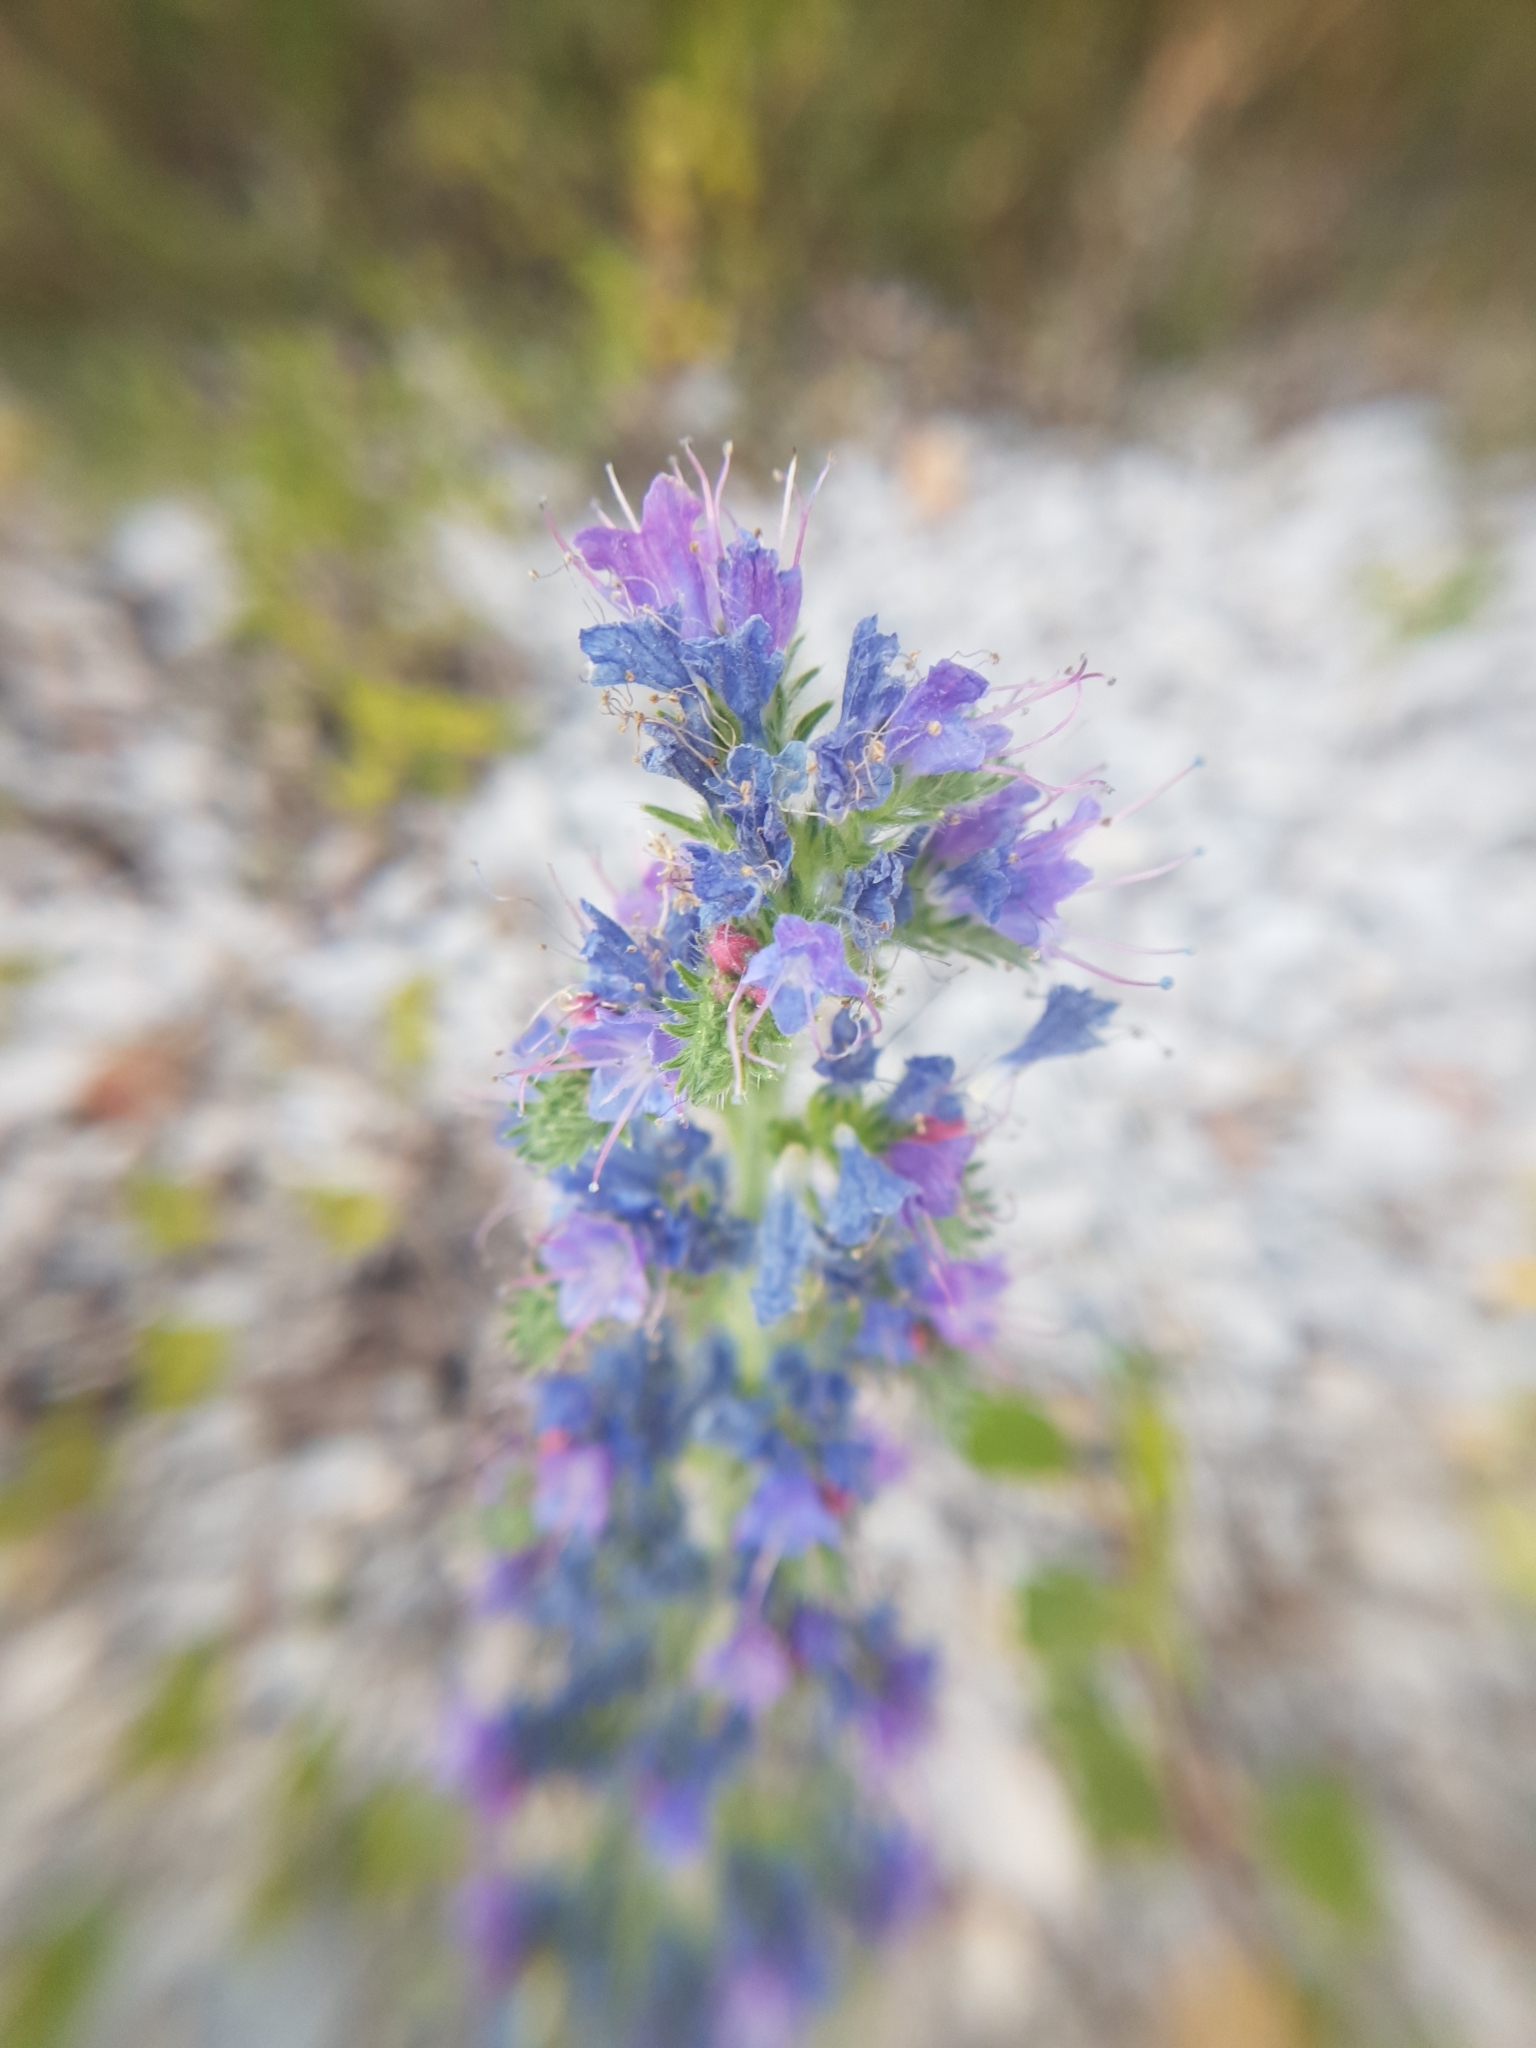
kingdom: Plantae
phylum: Tracheophyta
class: Magnoliopsida
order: Boraginales
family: Boraginaceae
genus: Echium
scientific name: Echium vulgare
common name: Common viper's bugloss
